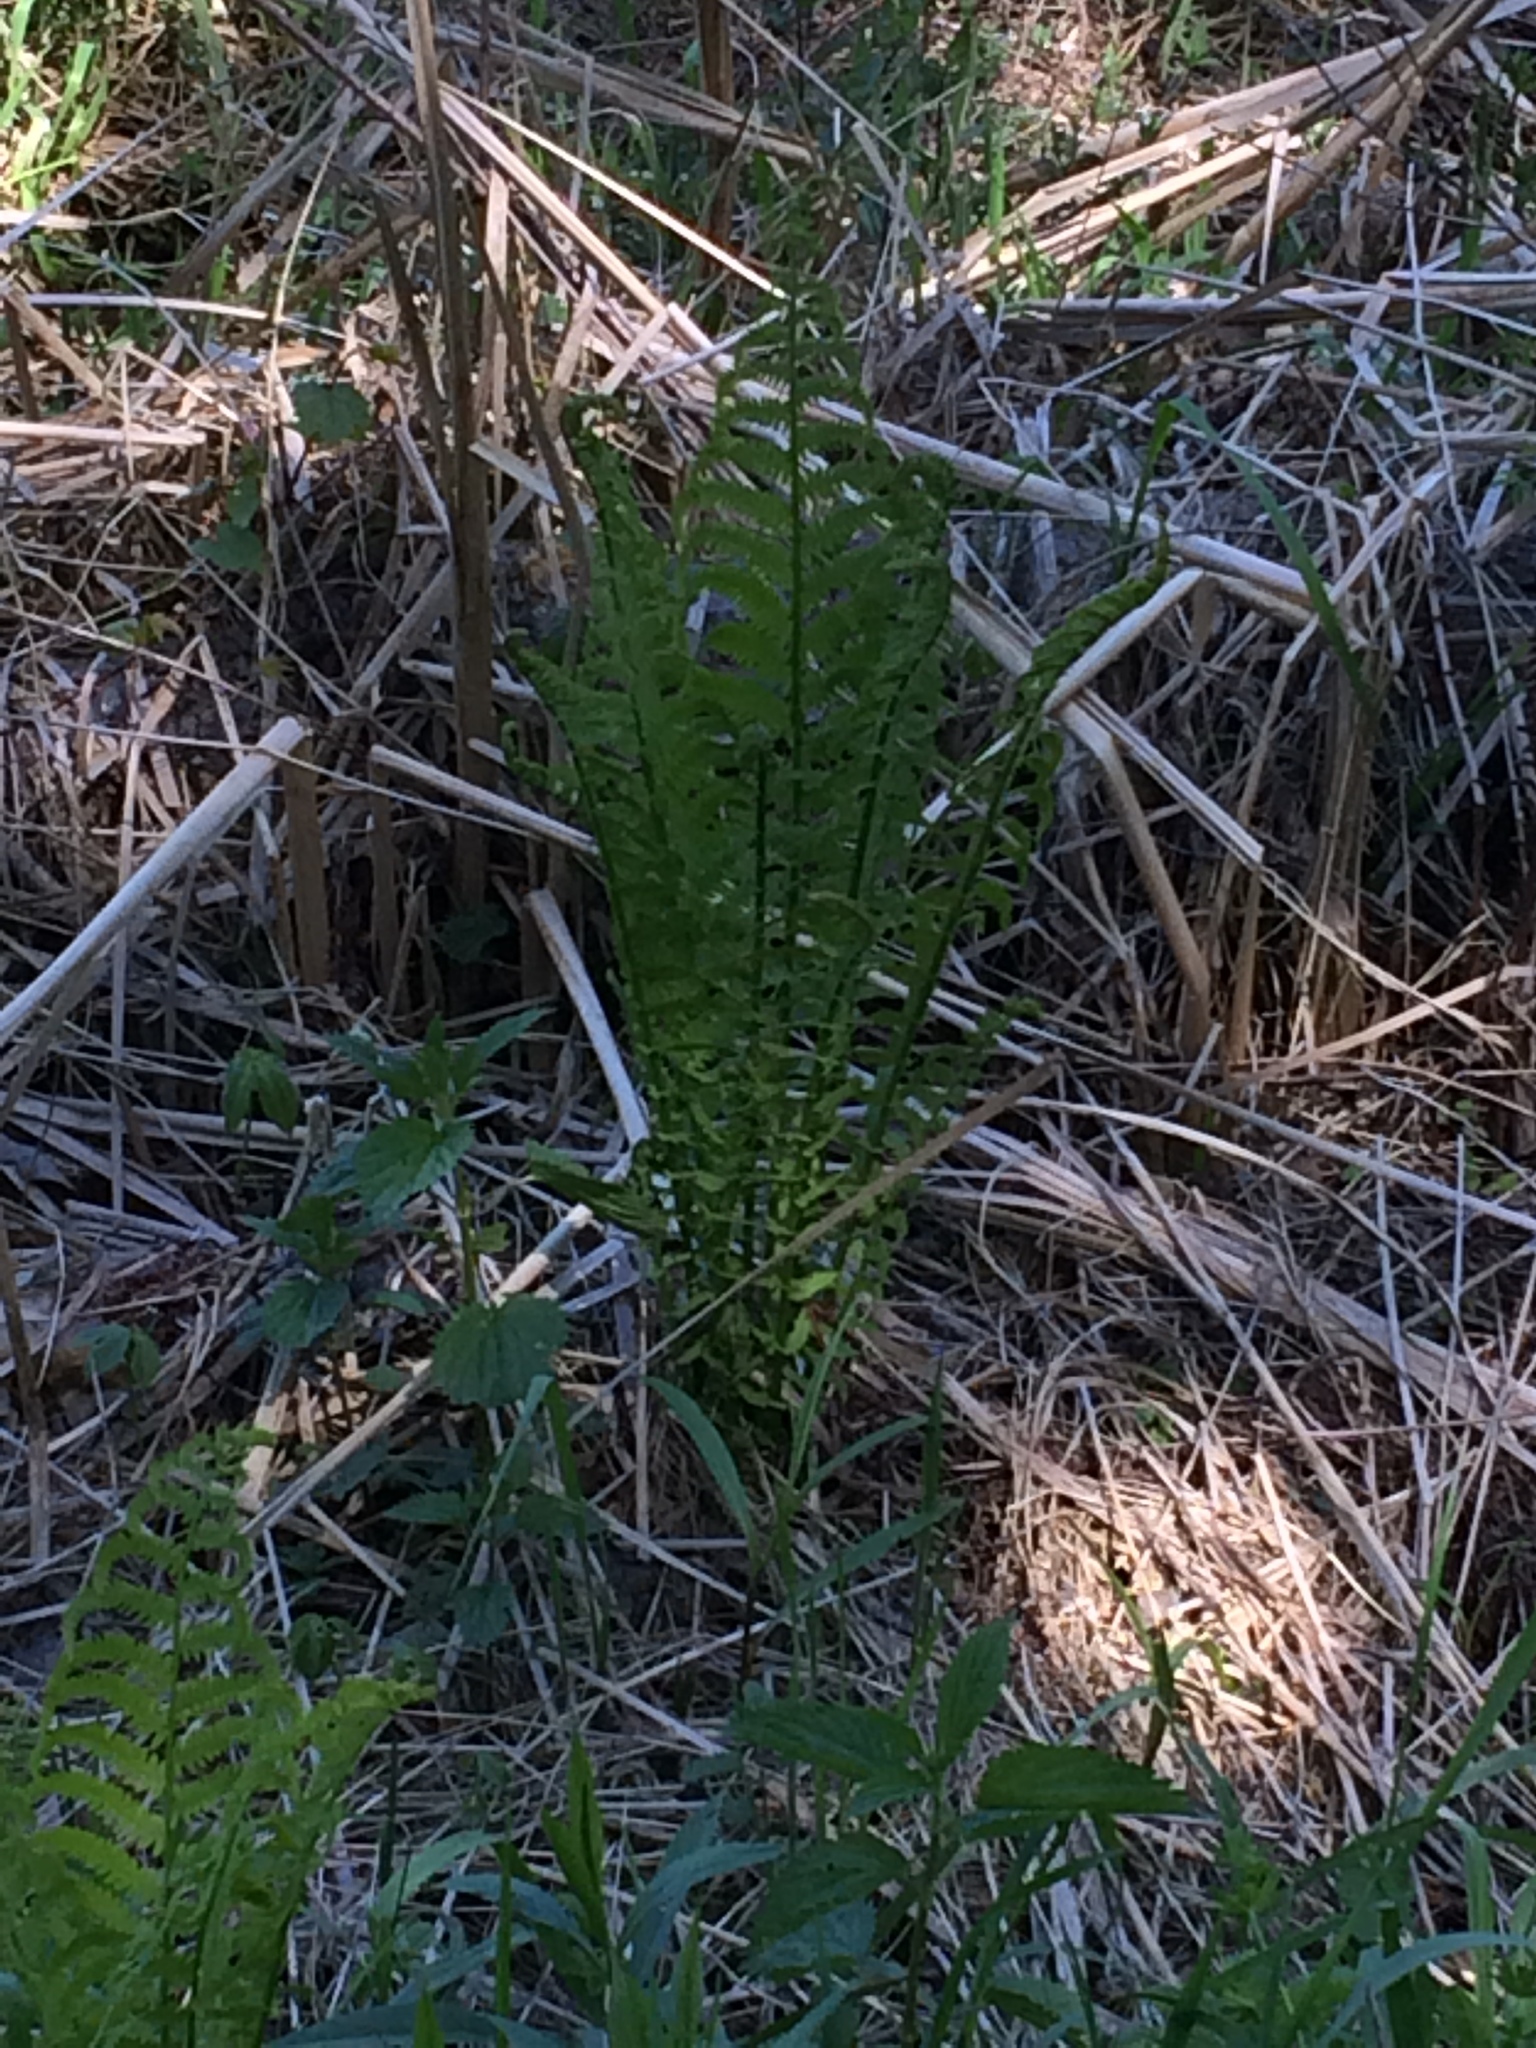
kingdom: Plantae
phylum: Tracheophyta
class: Polypodiopsida
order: Polypodiales
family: Onocleaceae
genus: Matteuccia
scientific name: Matteuccia struthiopteris
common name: Ostrich fern
